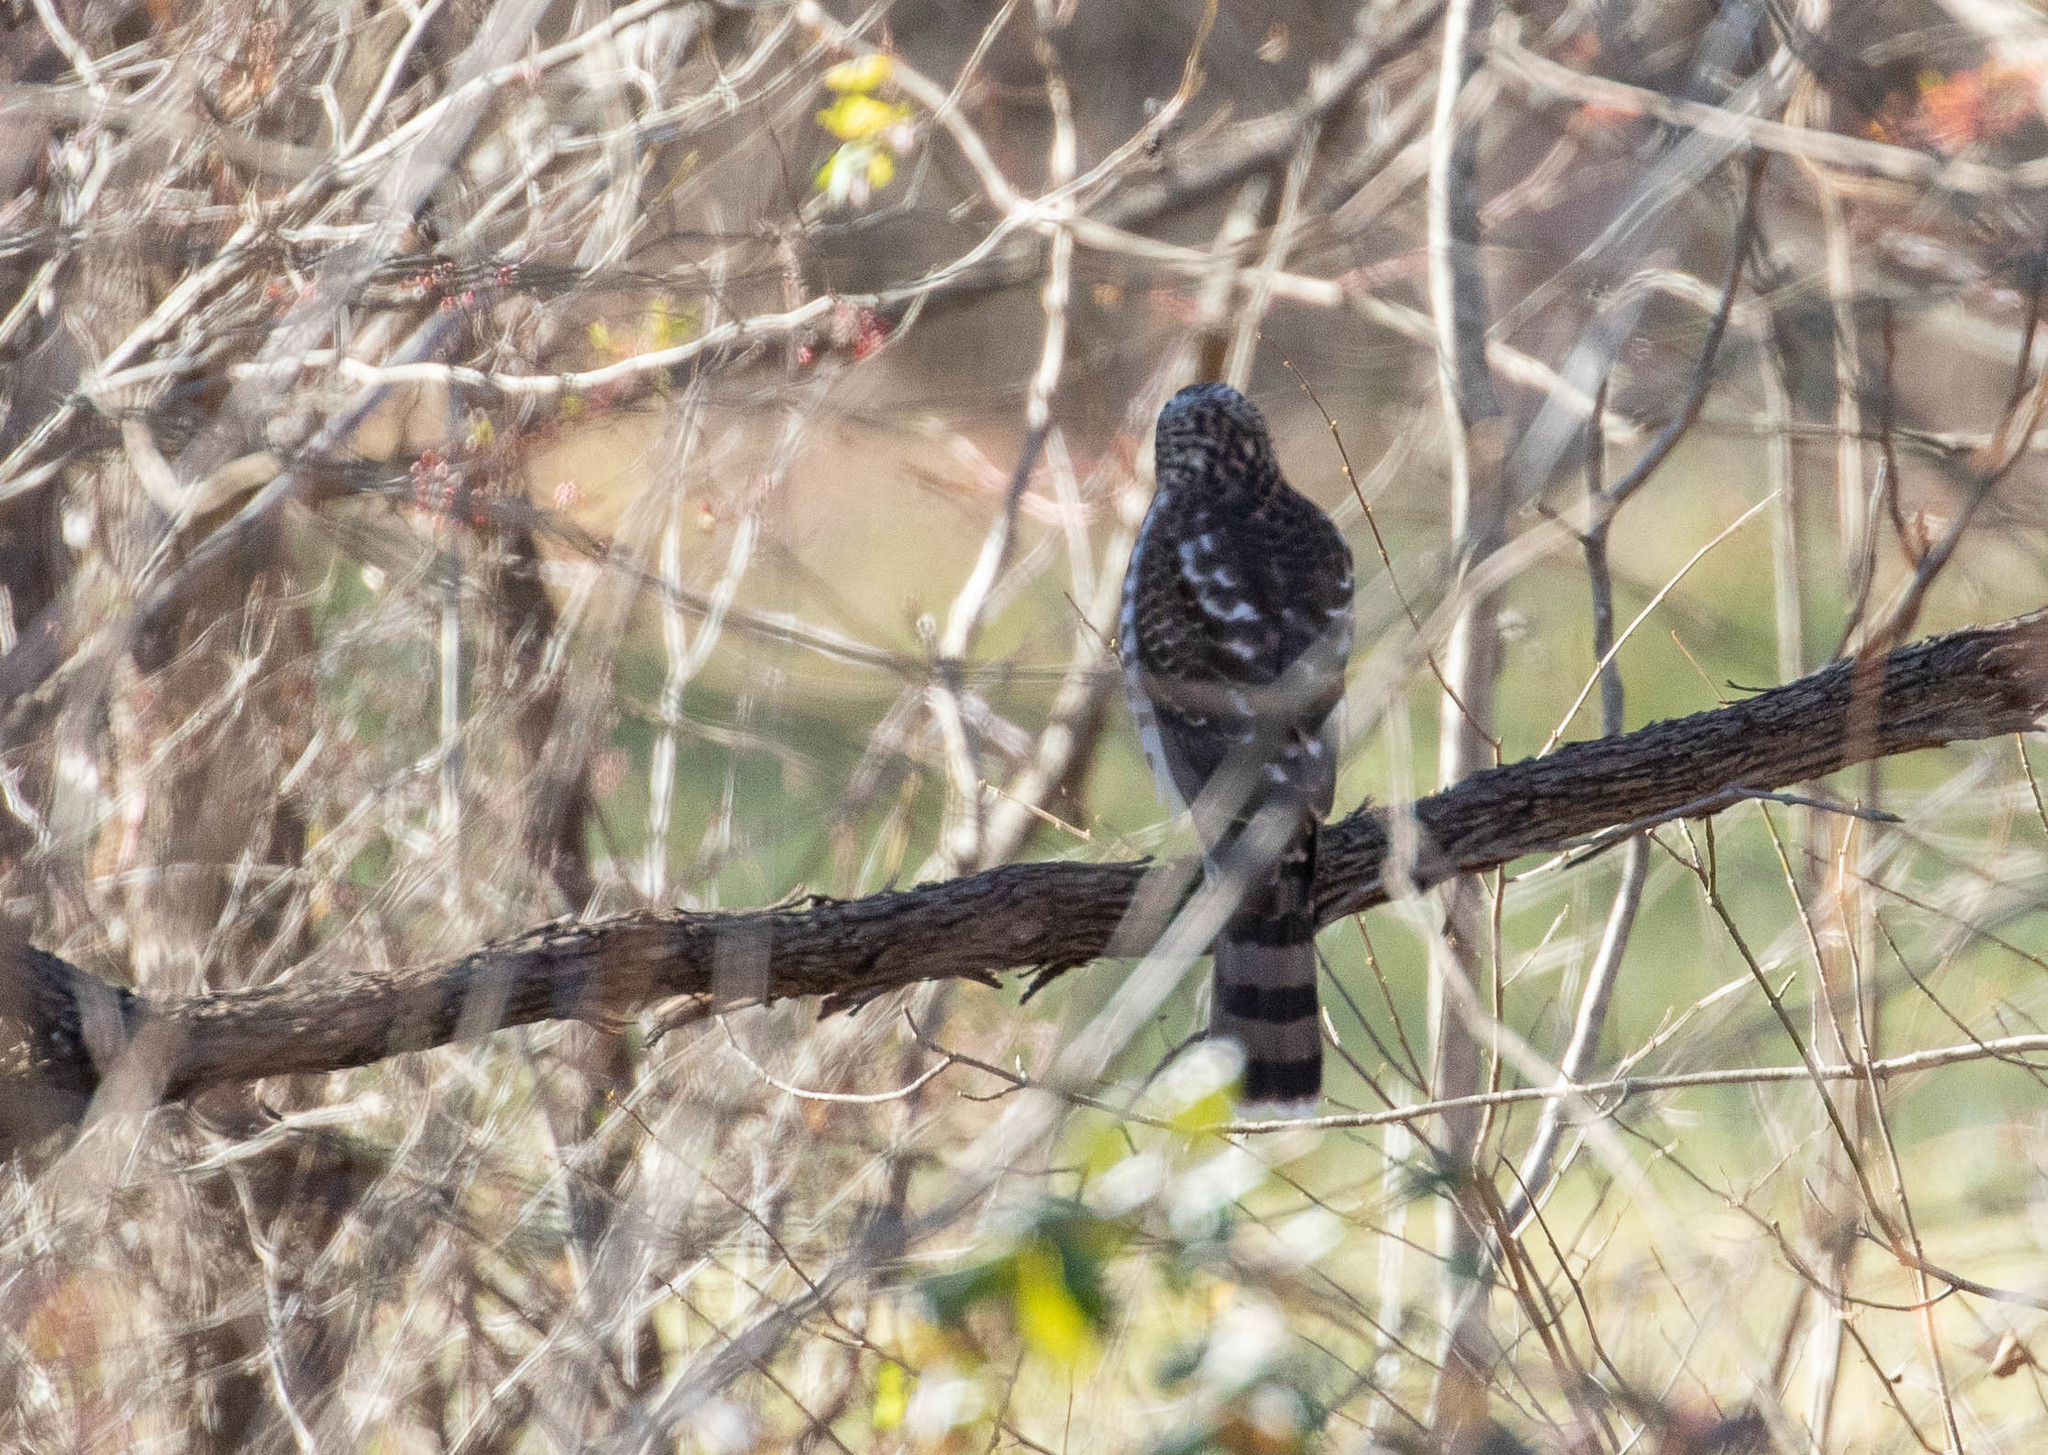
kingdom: Animalia
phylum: Chordata
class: Aves
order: Accipitriformes
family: Accipitridae
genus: Accipiter
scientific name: Accipiter striatus
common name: Sharp-shinned hawk
